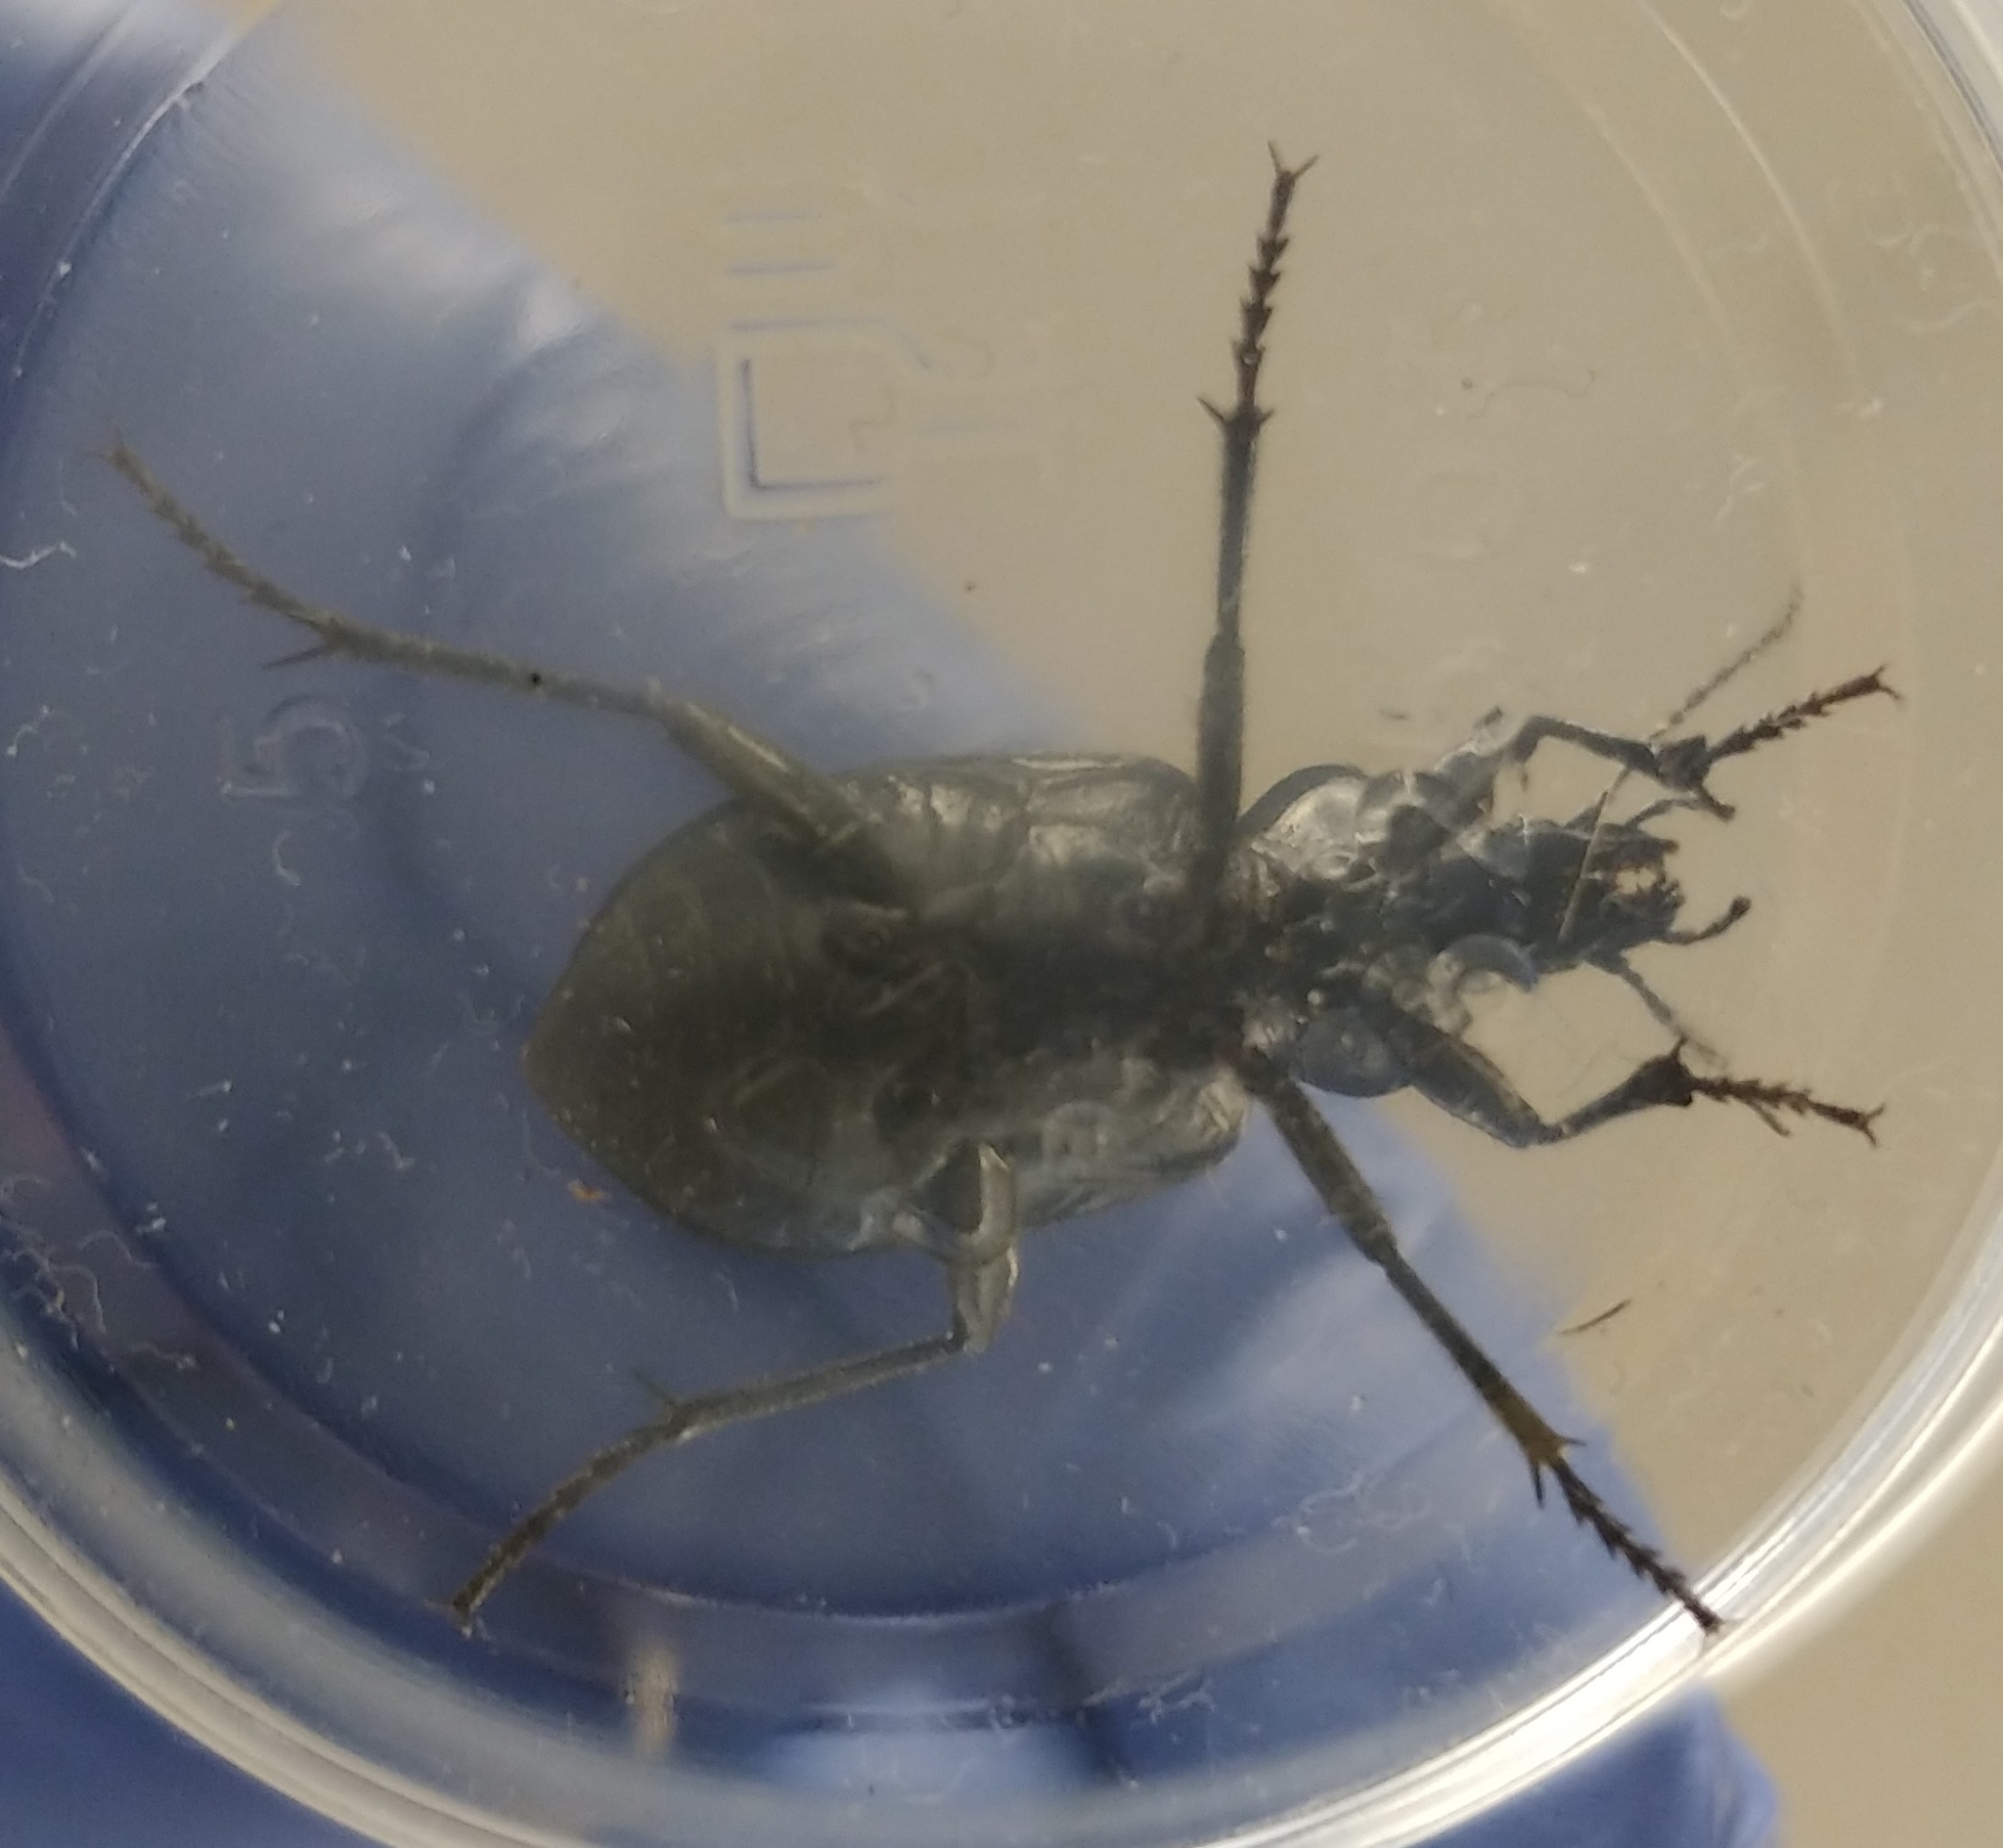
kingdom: Animalia
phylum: Arthropoda
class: Insecta
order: Coleoptera
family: Carabidae
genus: Calosoma
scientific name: Calosoma semilaeve
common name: Black calosoma beetle
